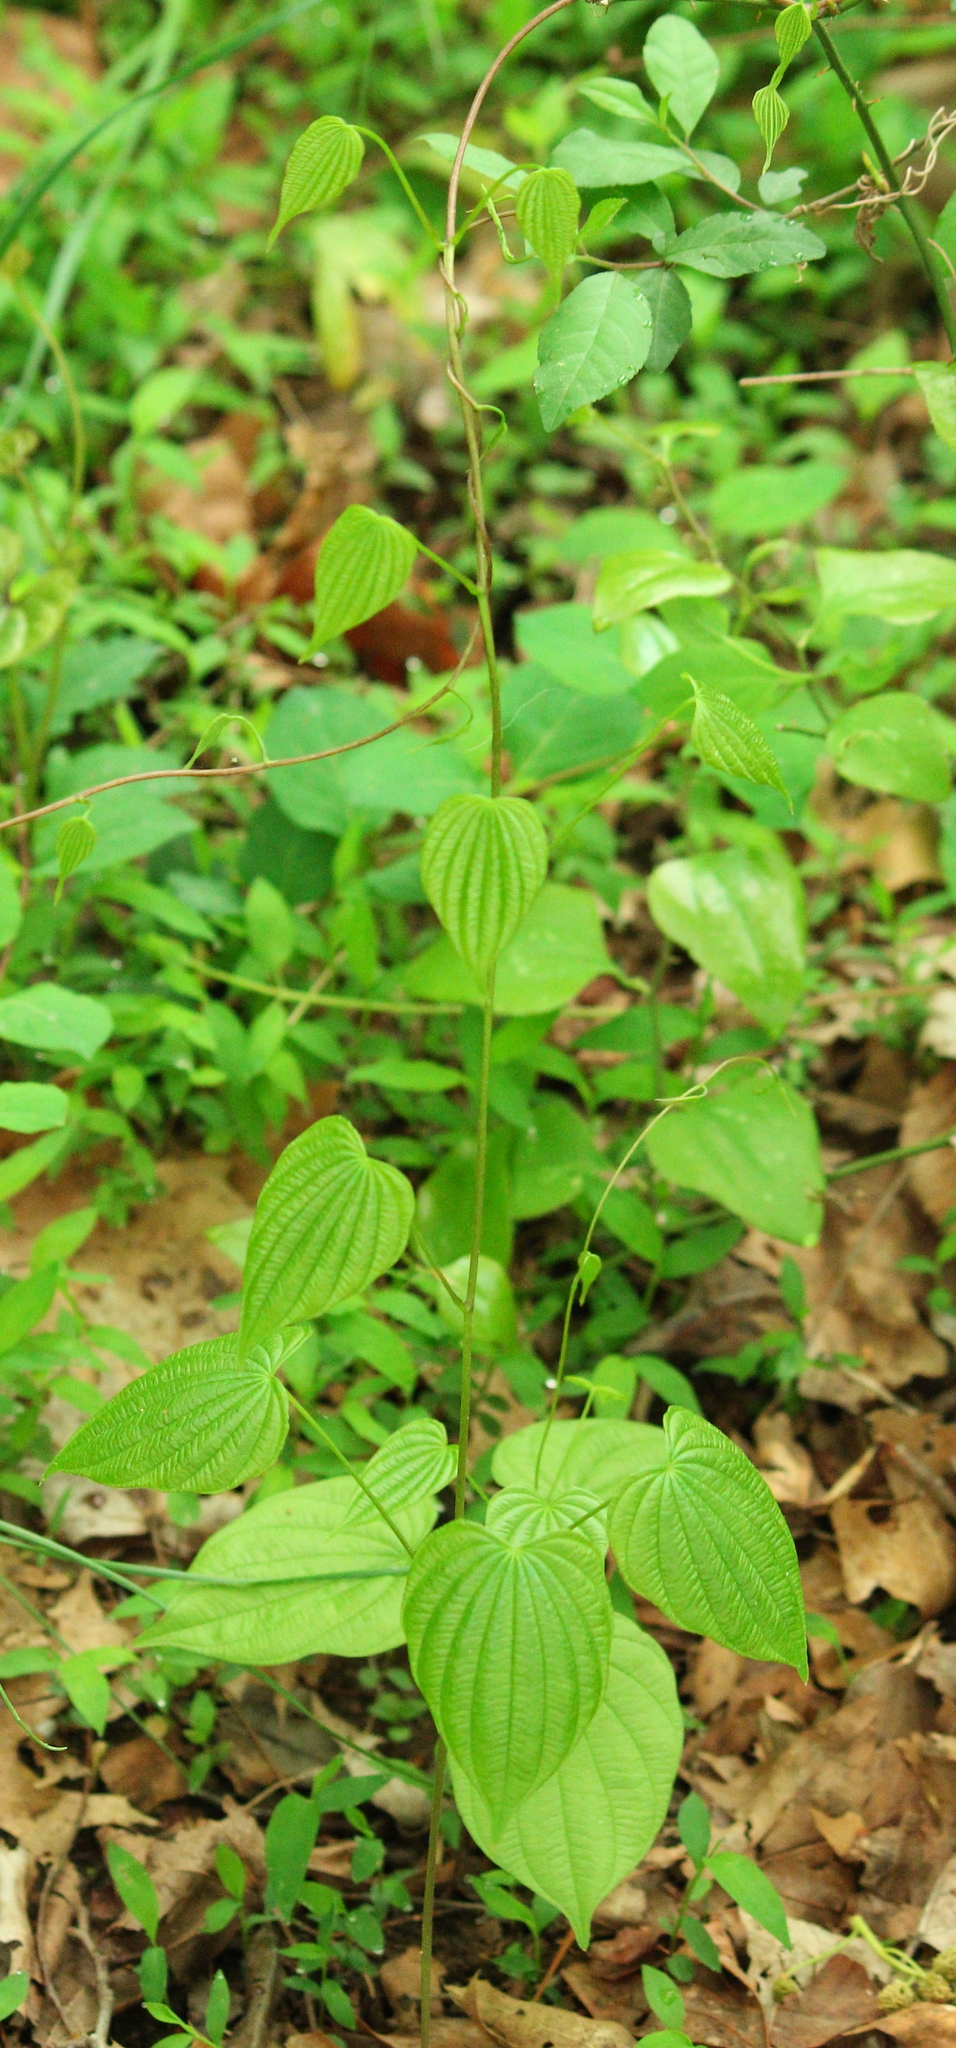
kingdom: Plantae
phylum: Tracheophyta
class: Liliopsida
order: Dioscoreales
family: Dioscoreaceae
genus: Dioscorea
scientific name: Dioscorea villosa
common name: Wild yam
